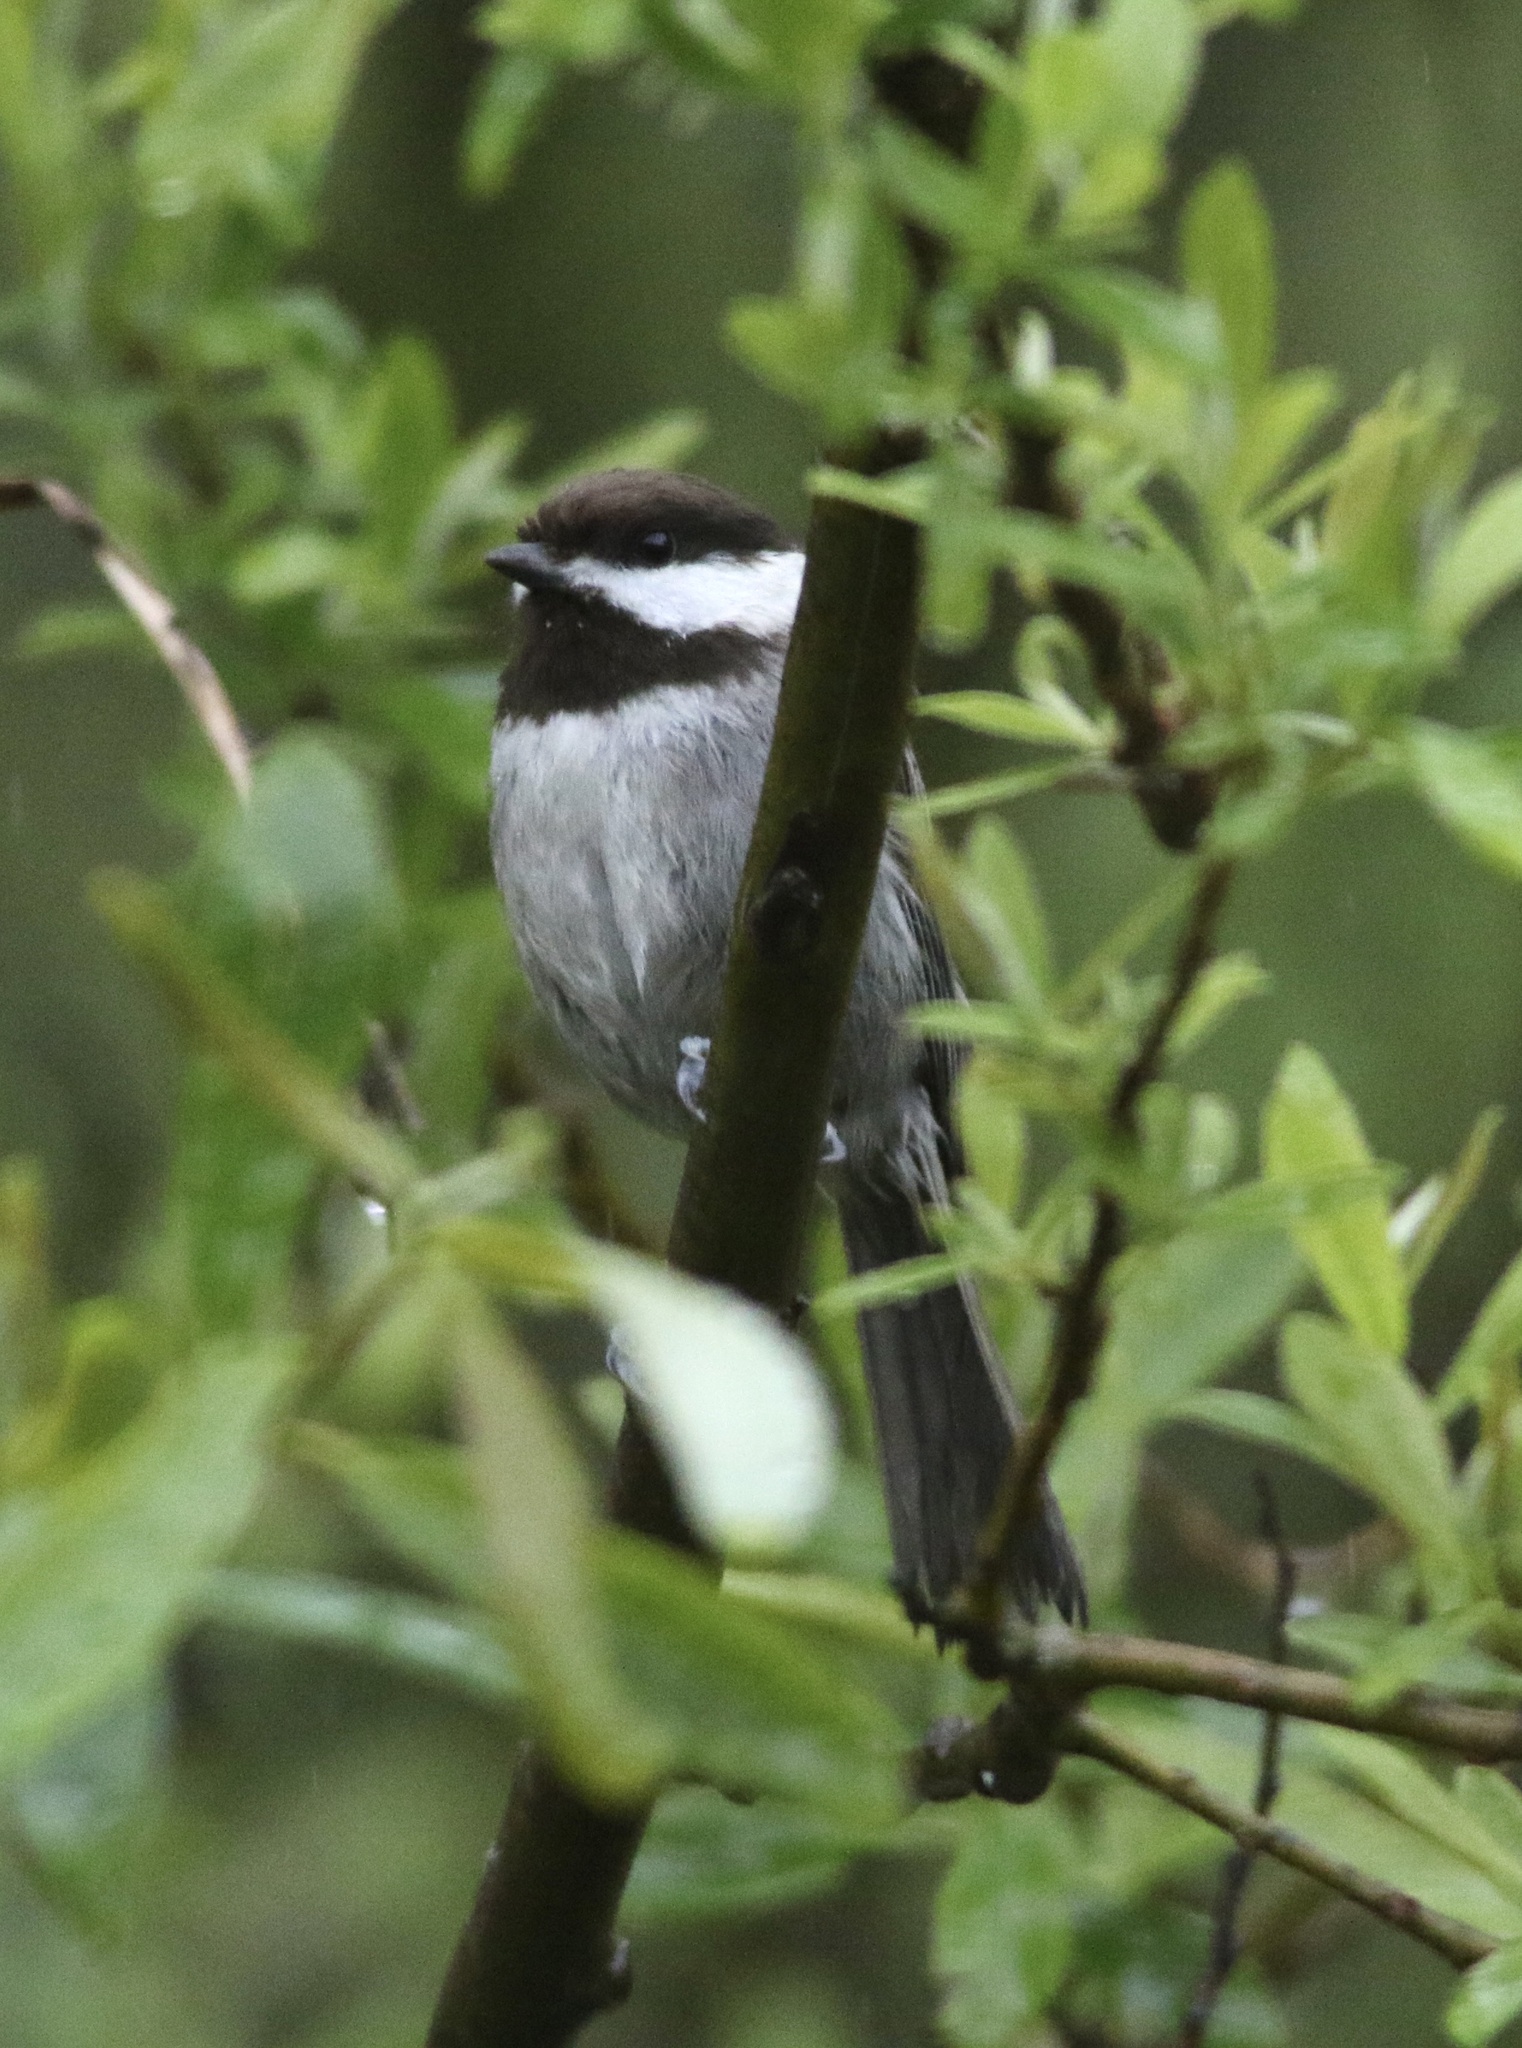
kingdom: Animalia
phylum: Chordata
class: Aves
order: Passeriformes
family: Paridae
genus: Poecile
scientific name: Poecile rufescens
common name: Chestnut-backed chickadee
